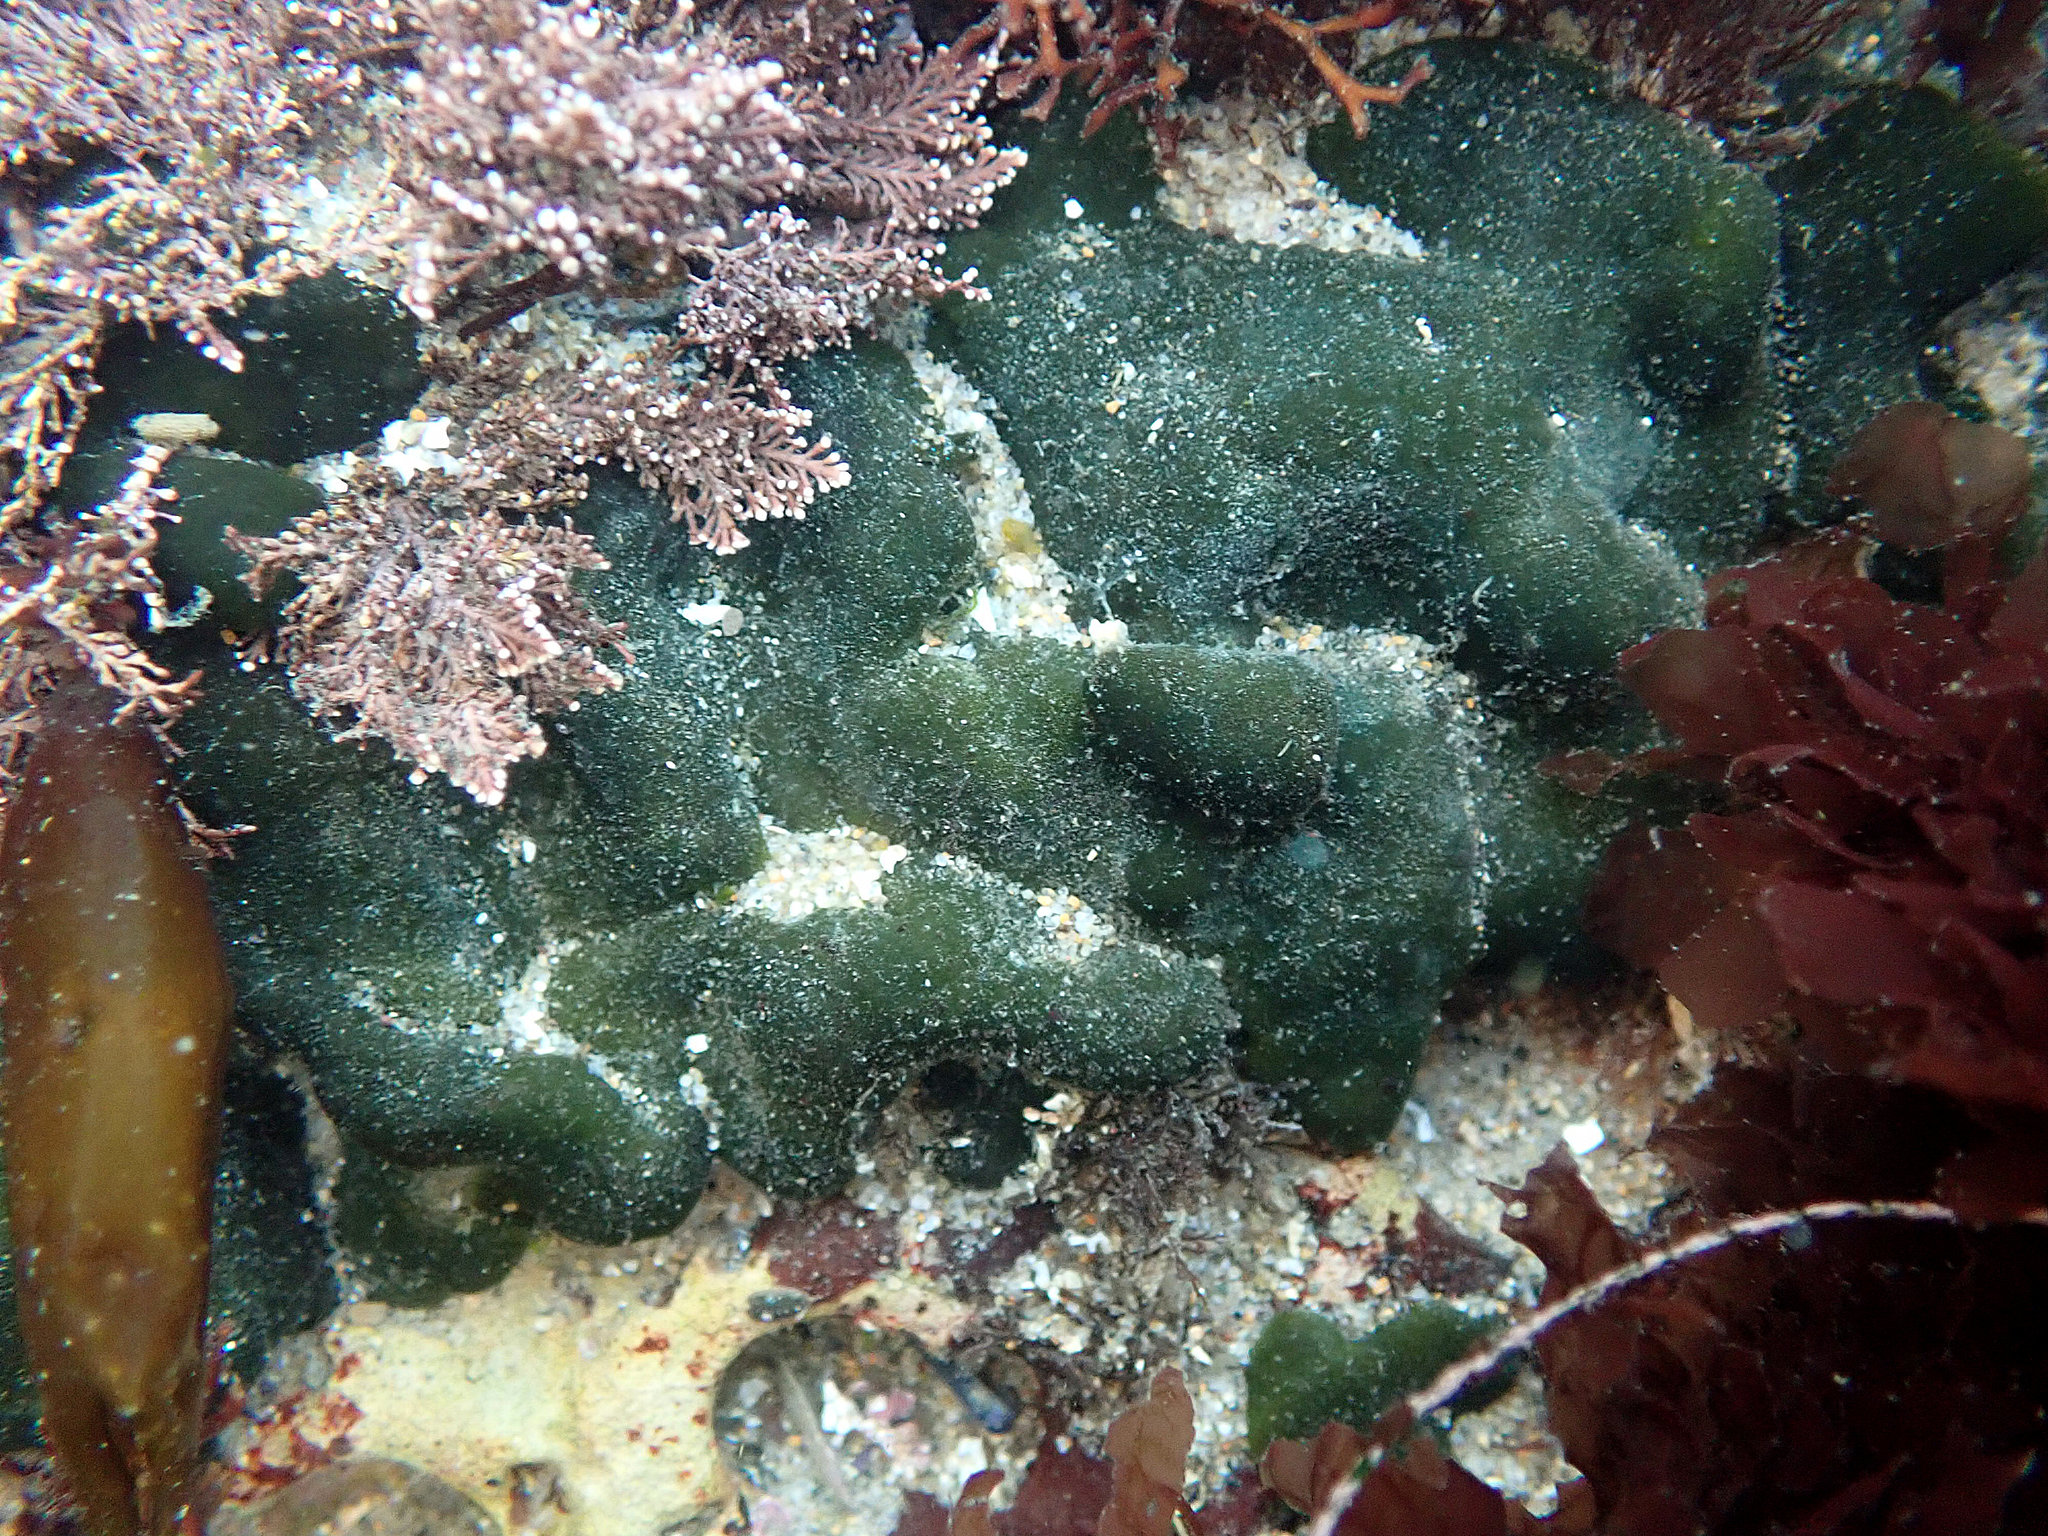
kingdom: Plantae
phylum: Chlorophyta
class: Ulvophyceae
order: Bryopsidales
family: Codiaceae
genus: Codium
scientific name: Codium setchellii
